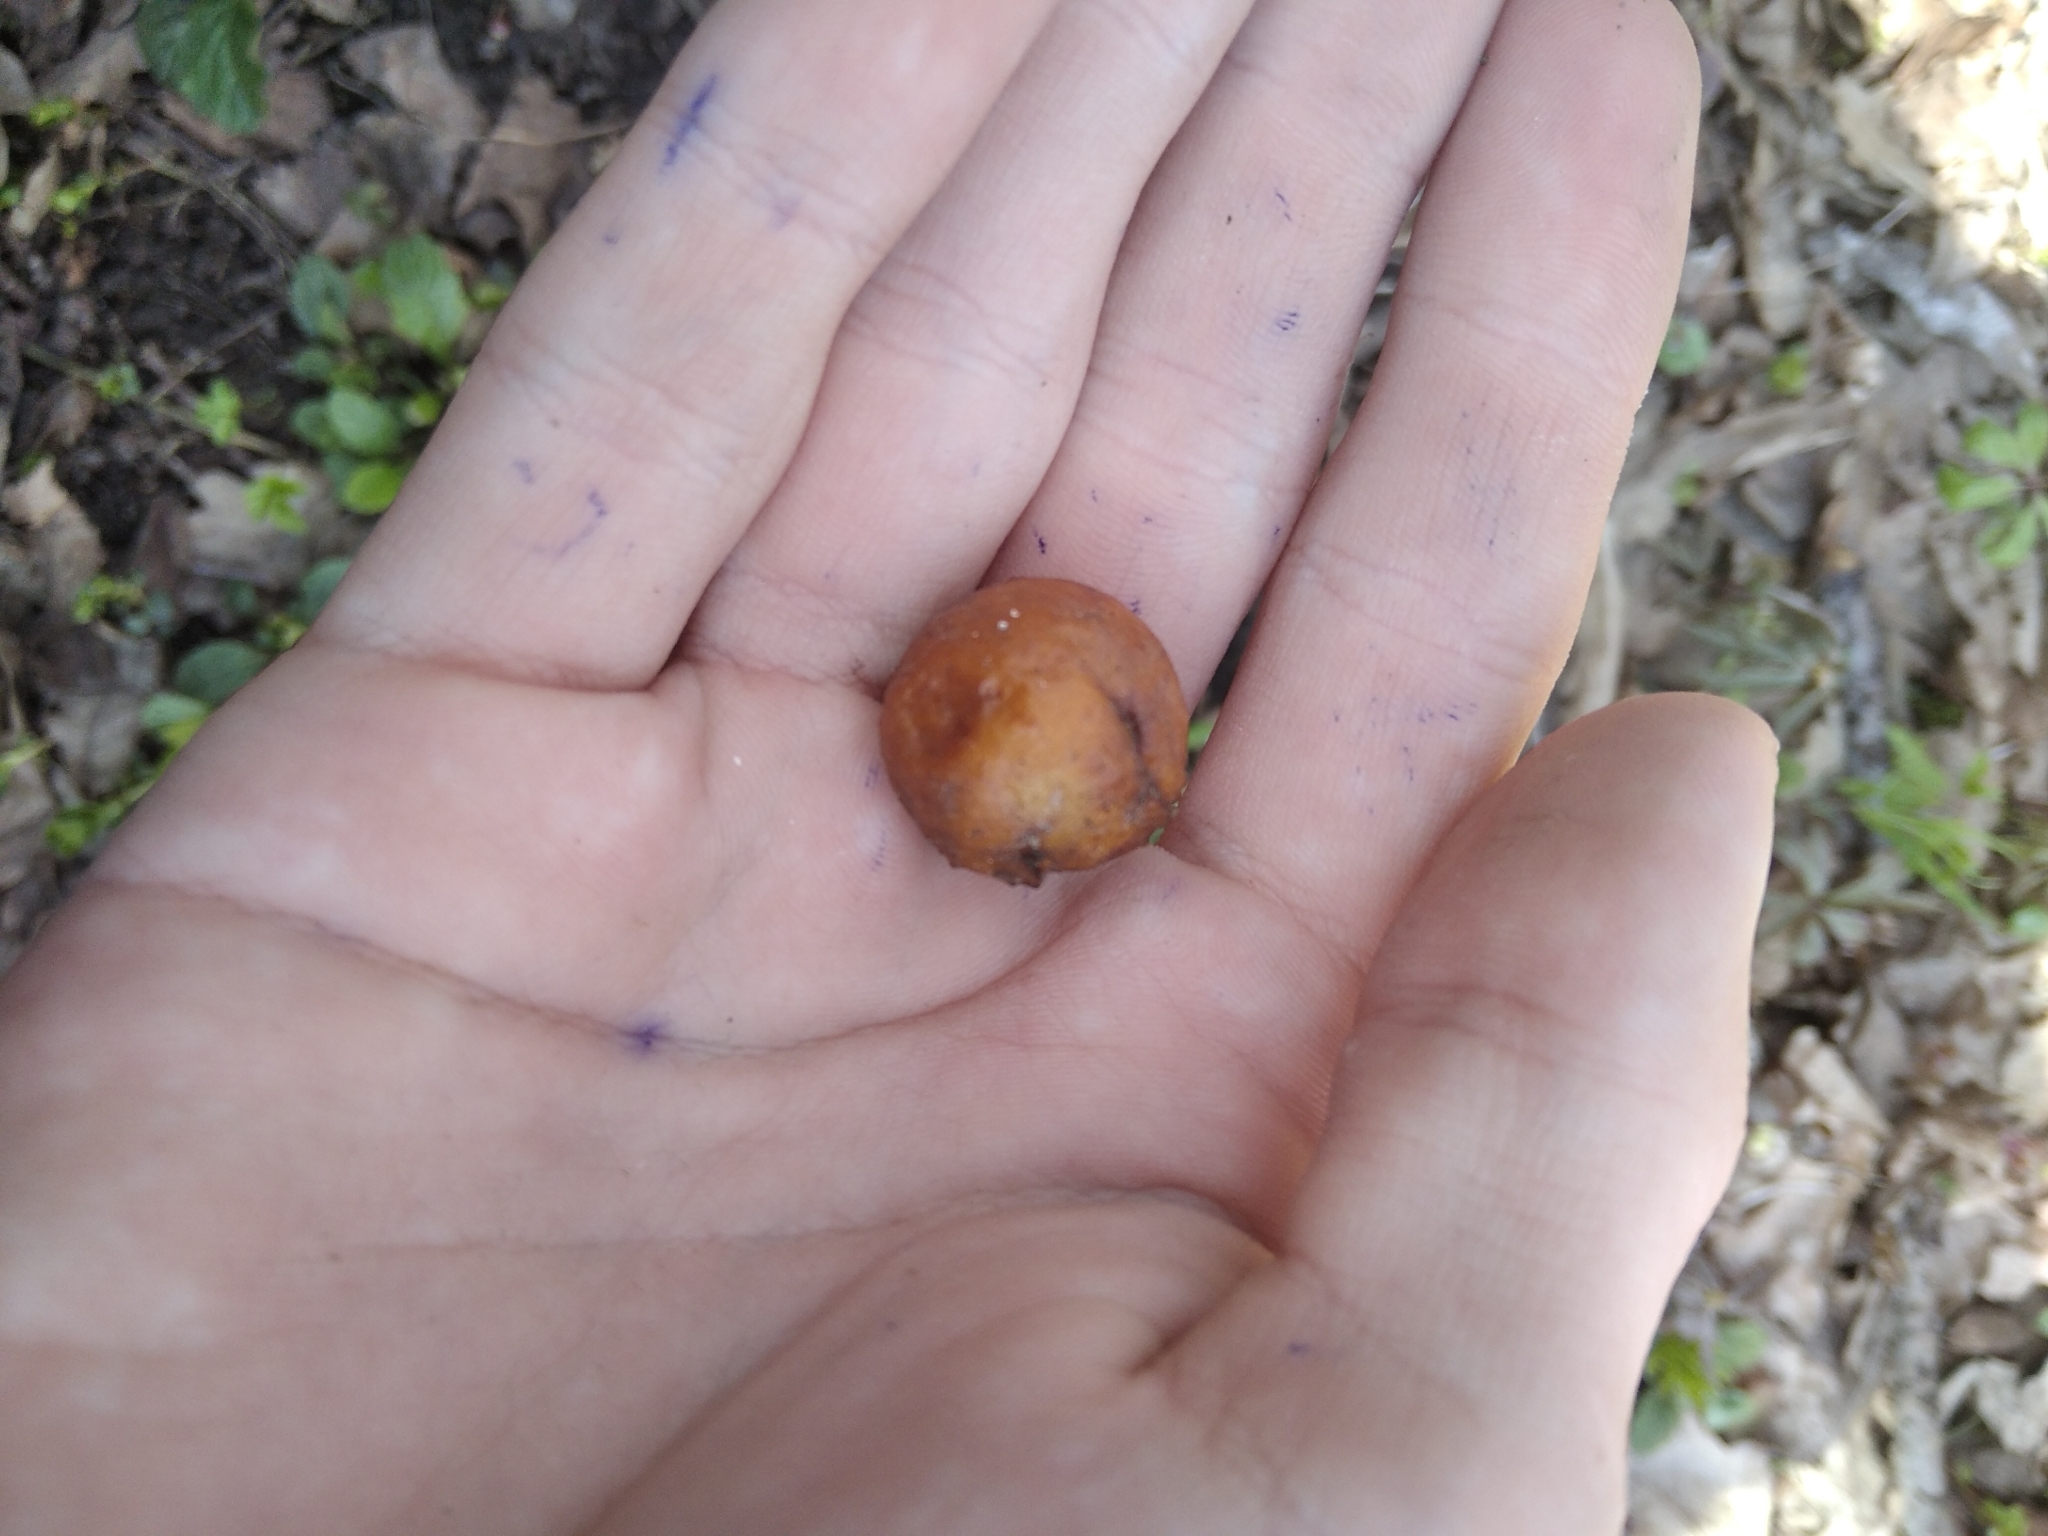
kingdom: Animalia
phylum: Arthropoda
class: Insecta
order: Hymenoptera
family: Cynipidae
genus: Cynips
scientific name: Cynips quercusfolii
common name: Cherry gall
